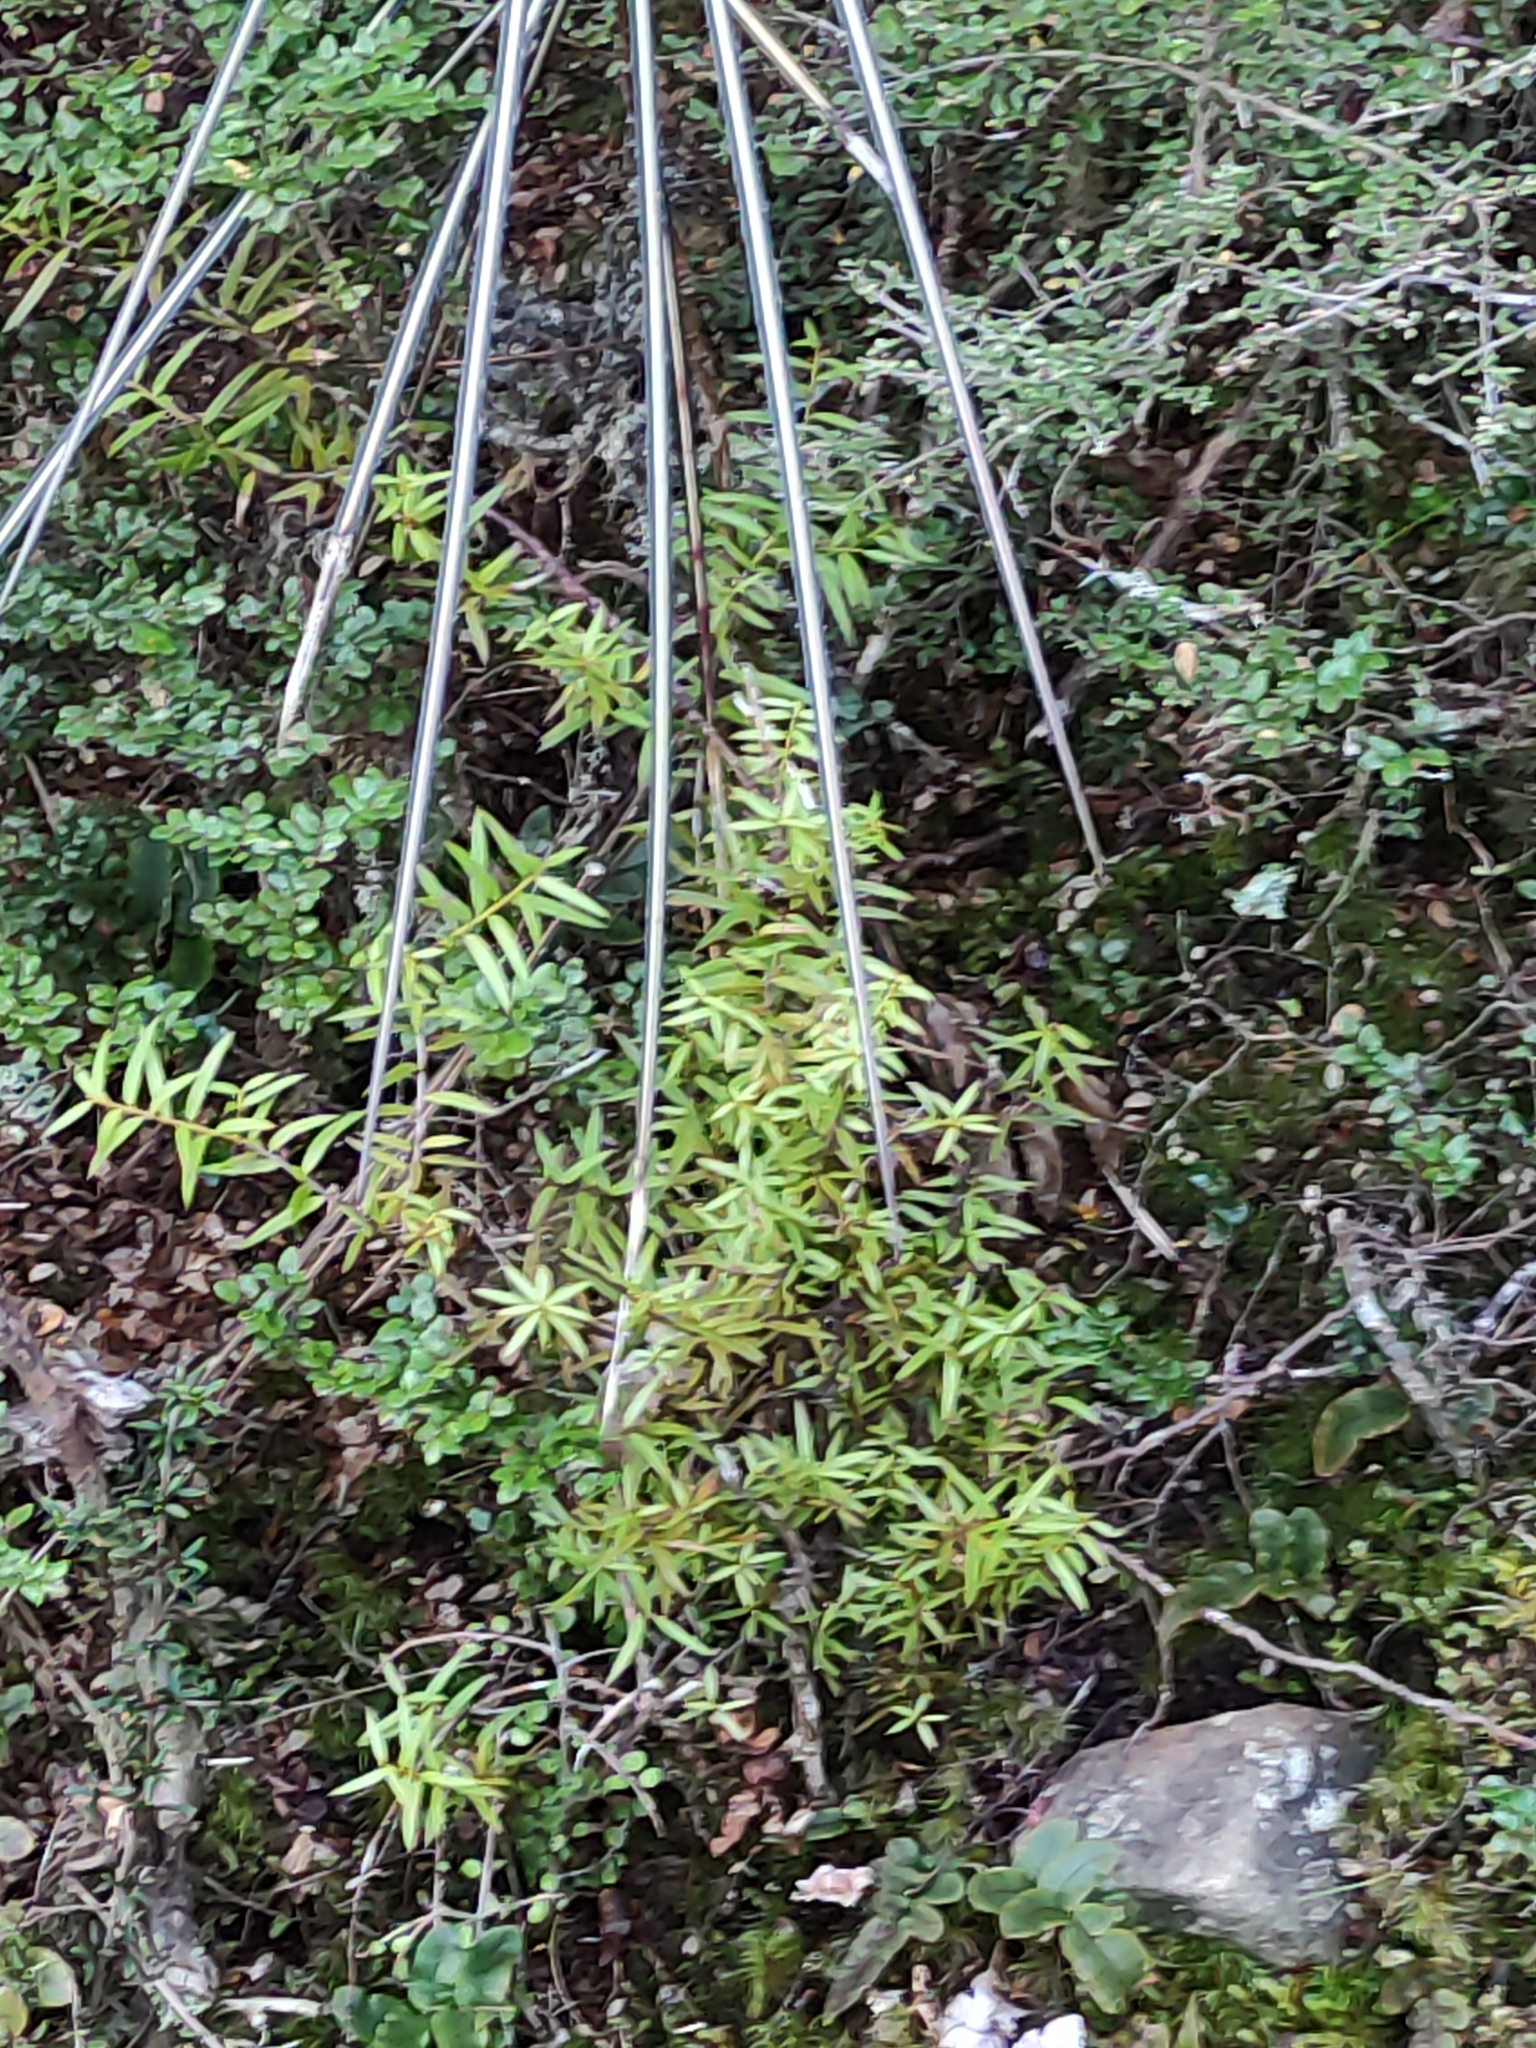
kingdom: Plantae
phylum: Tracheophyta
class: Pinopsida
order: Pinales
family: Podocarpaceae
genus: Podocarpus
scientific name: Podocarpus totara
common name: Totara
